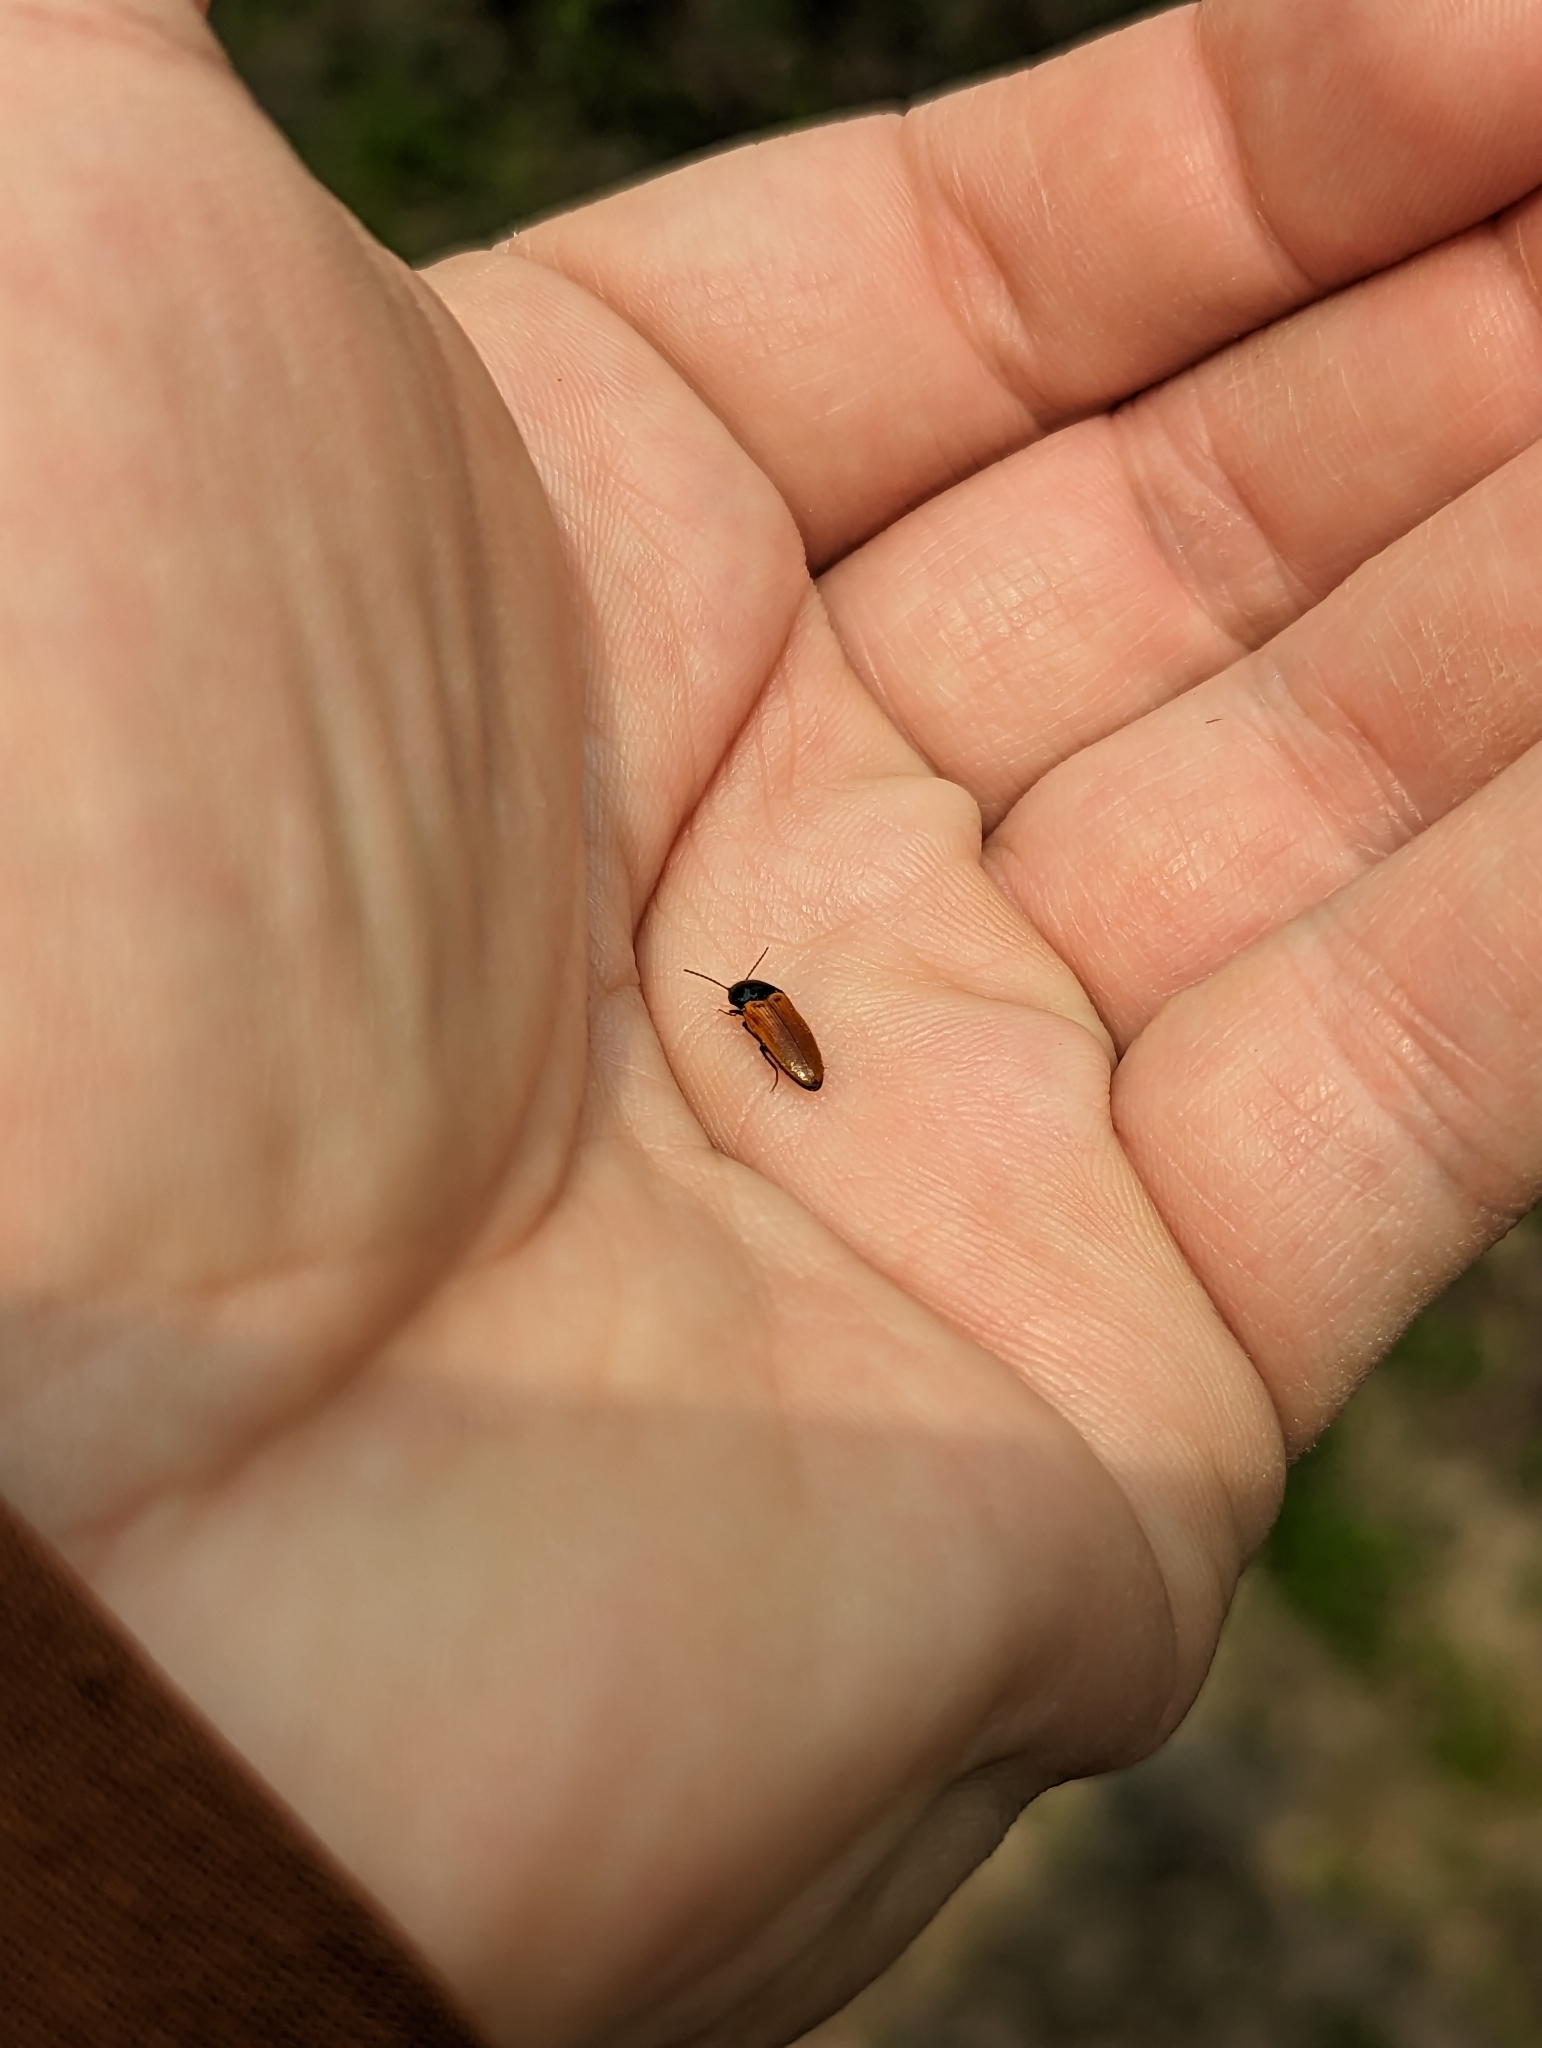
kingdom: Animalia
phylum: Arthropoda
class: Insecta
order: Coleoptera
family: Elateridae
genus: Ampedus
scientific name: Ampedus sanguinipennis
